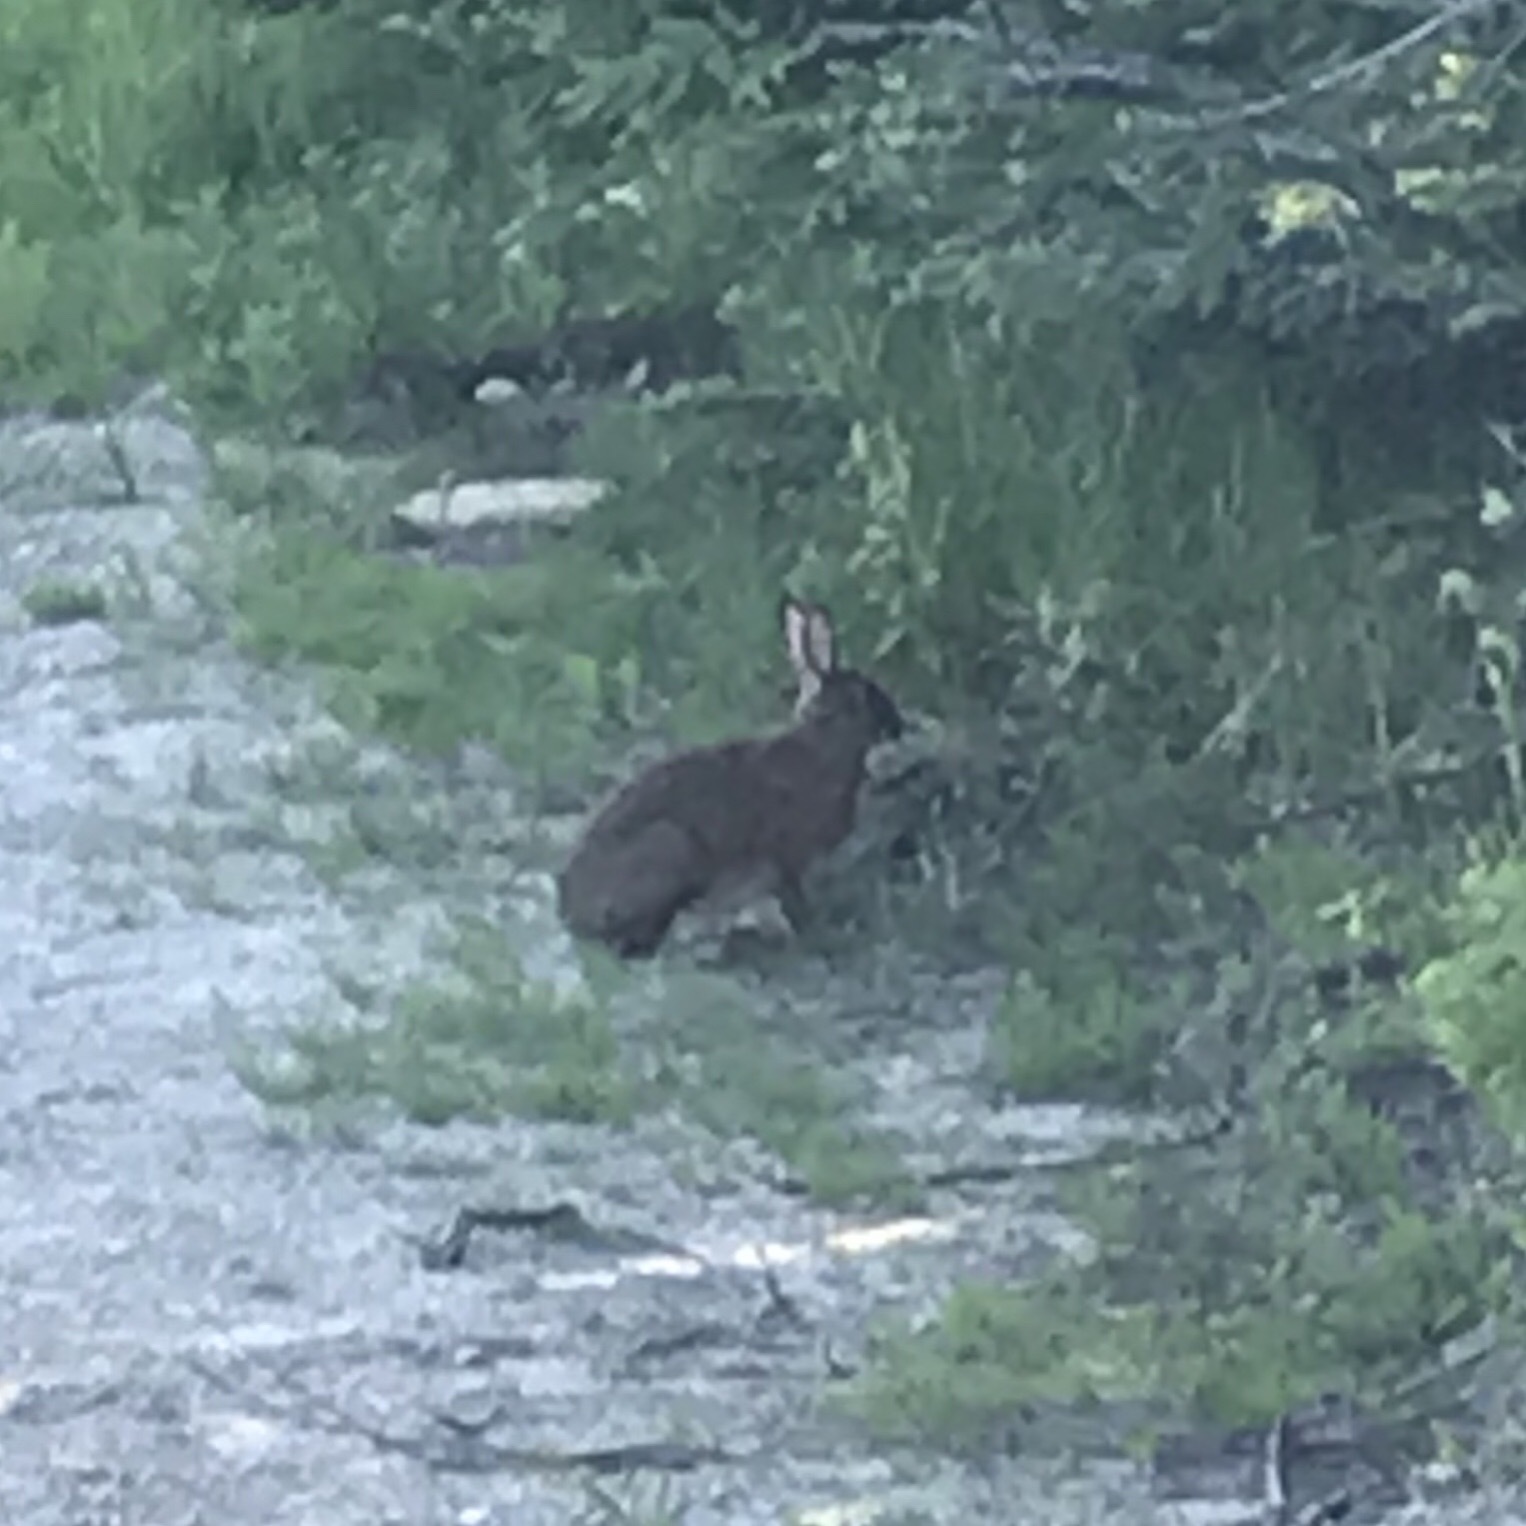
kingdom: Animalia
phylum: Chordata
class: Mammalia
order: Lagomorpha
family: Leporidae
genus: Lepus
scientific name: Lepus americanus
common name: Snowshoe hare
